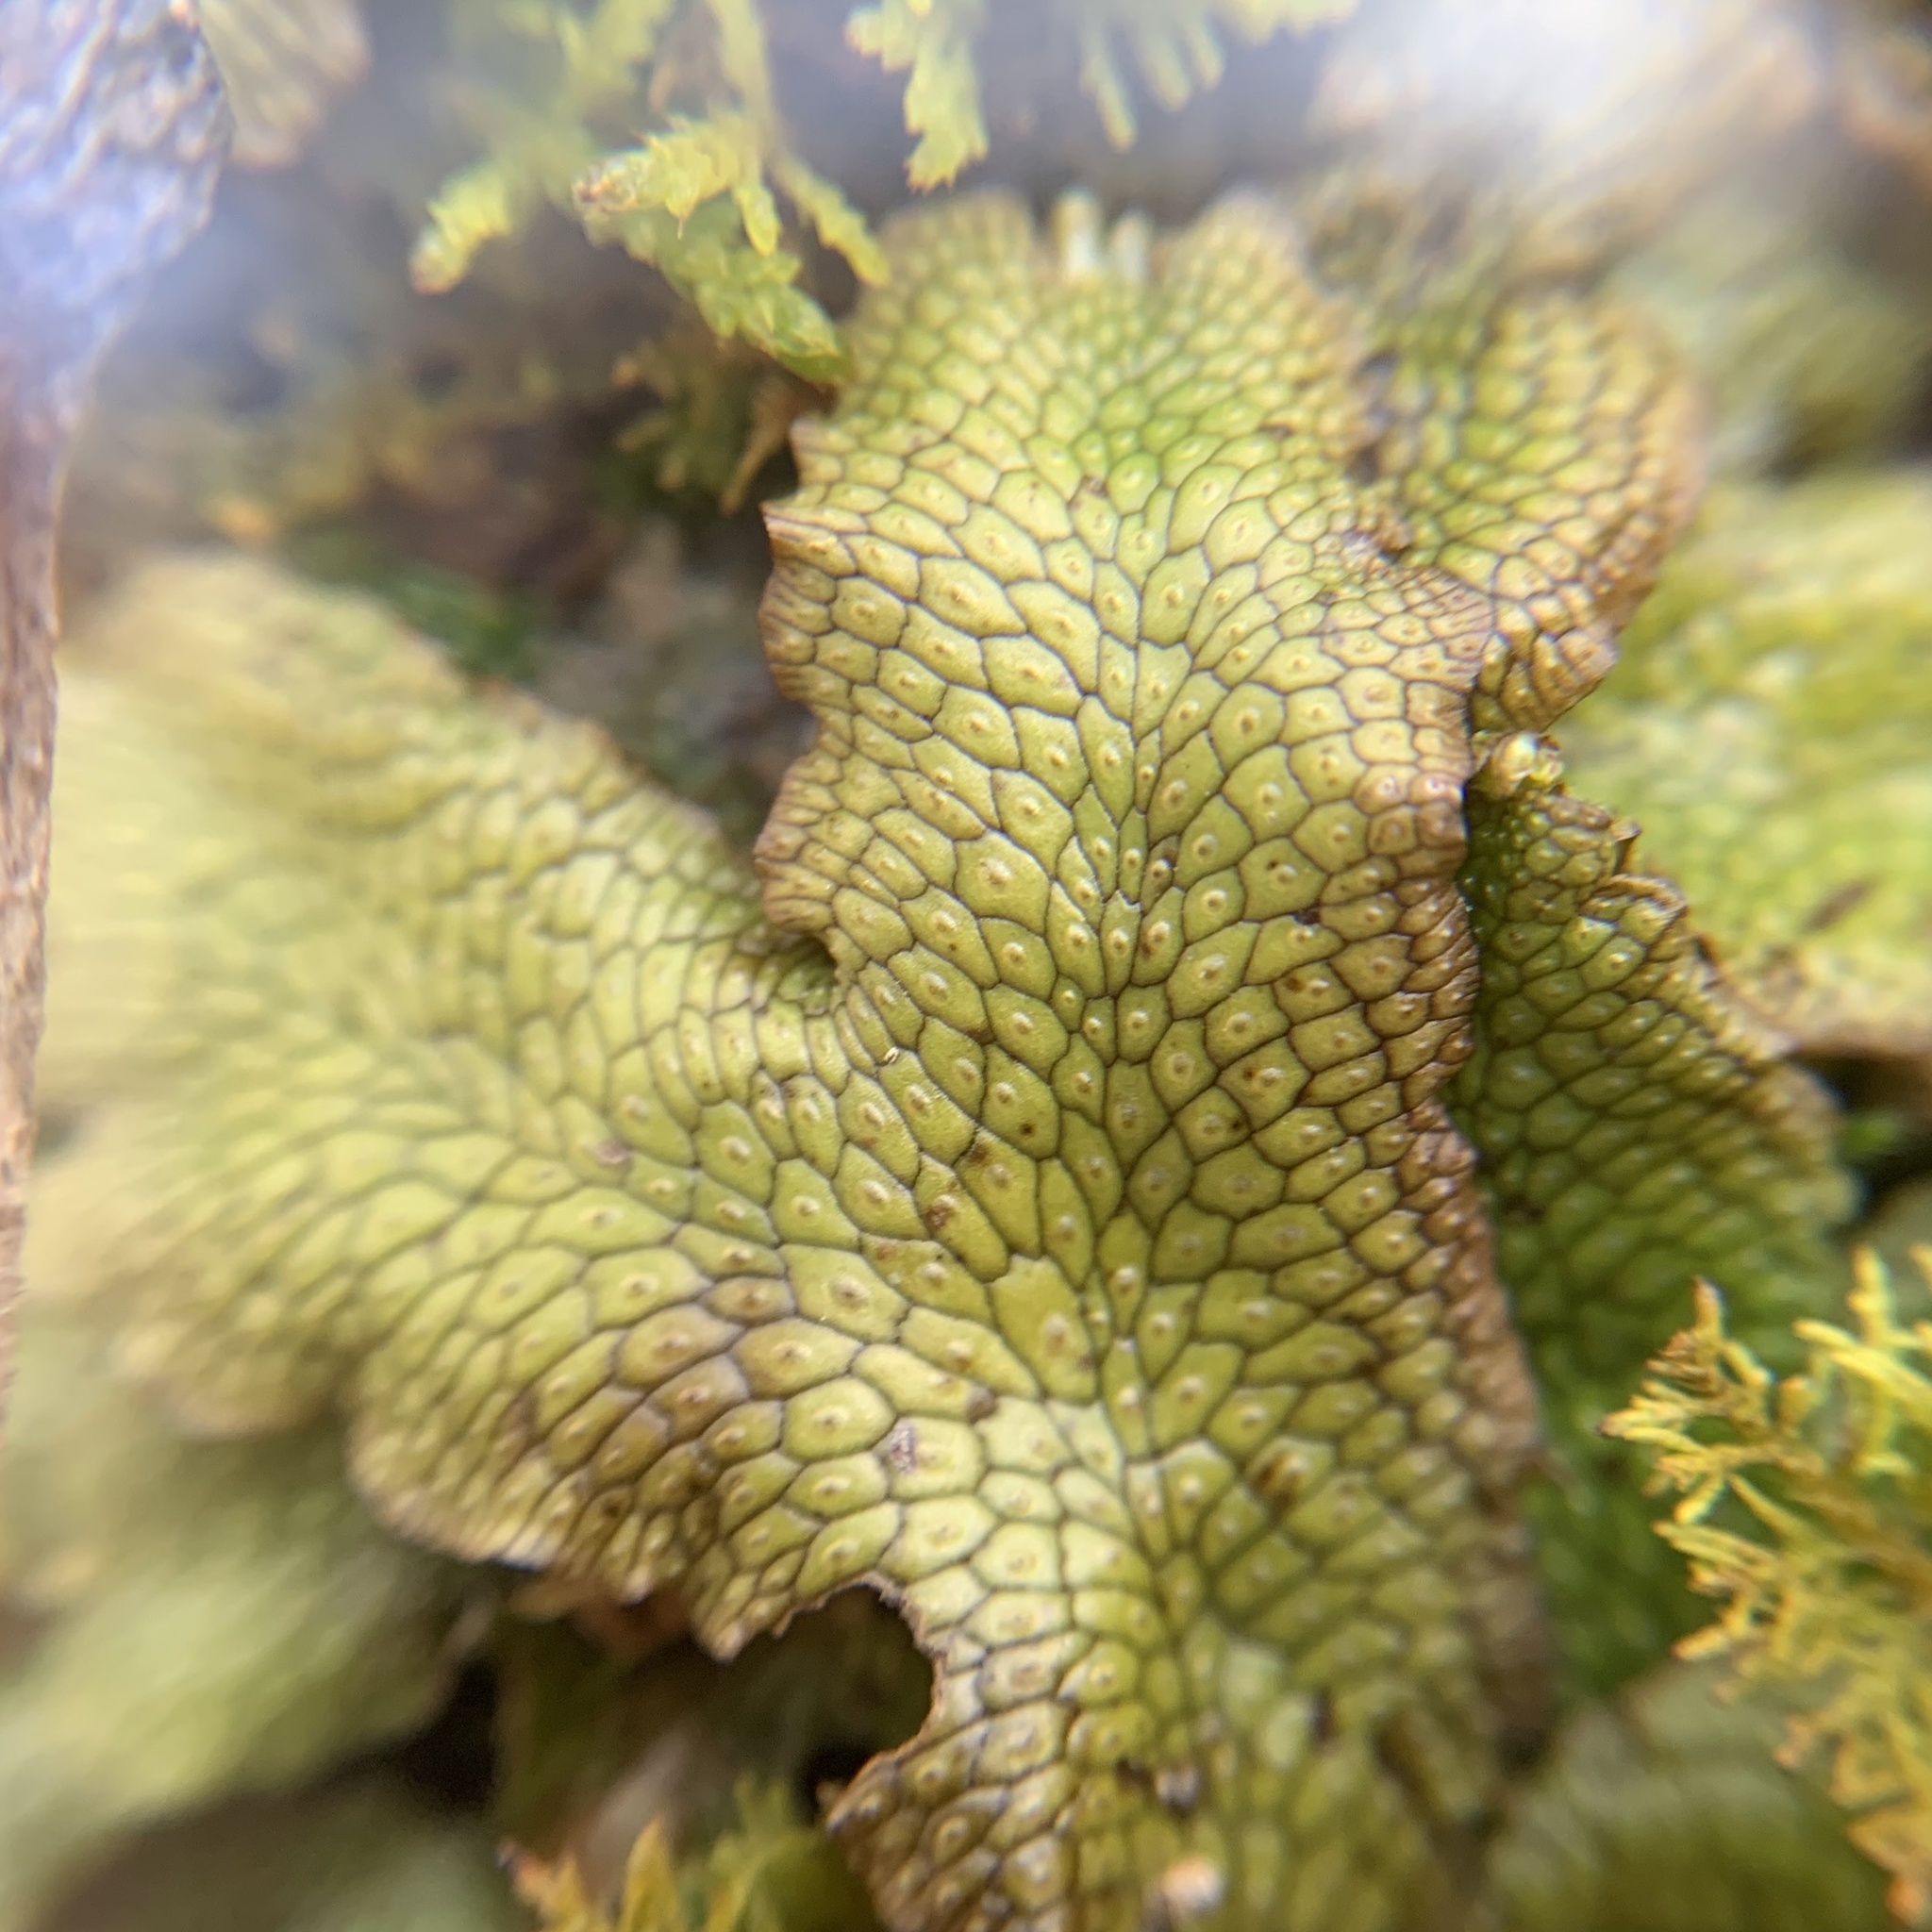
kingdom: Plantae
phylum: Marchantiophyta
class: Marchantiopsida
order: Marchantiales
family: Conocephalaceae
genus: Conocephalum
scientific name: Conocephalum salebrosum
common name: Cat-tongue liverwort
